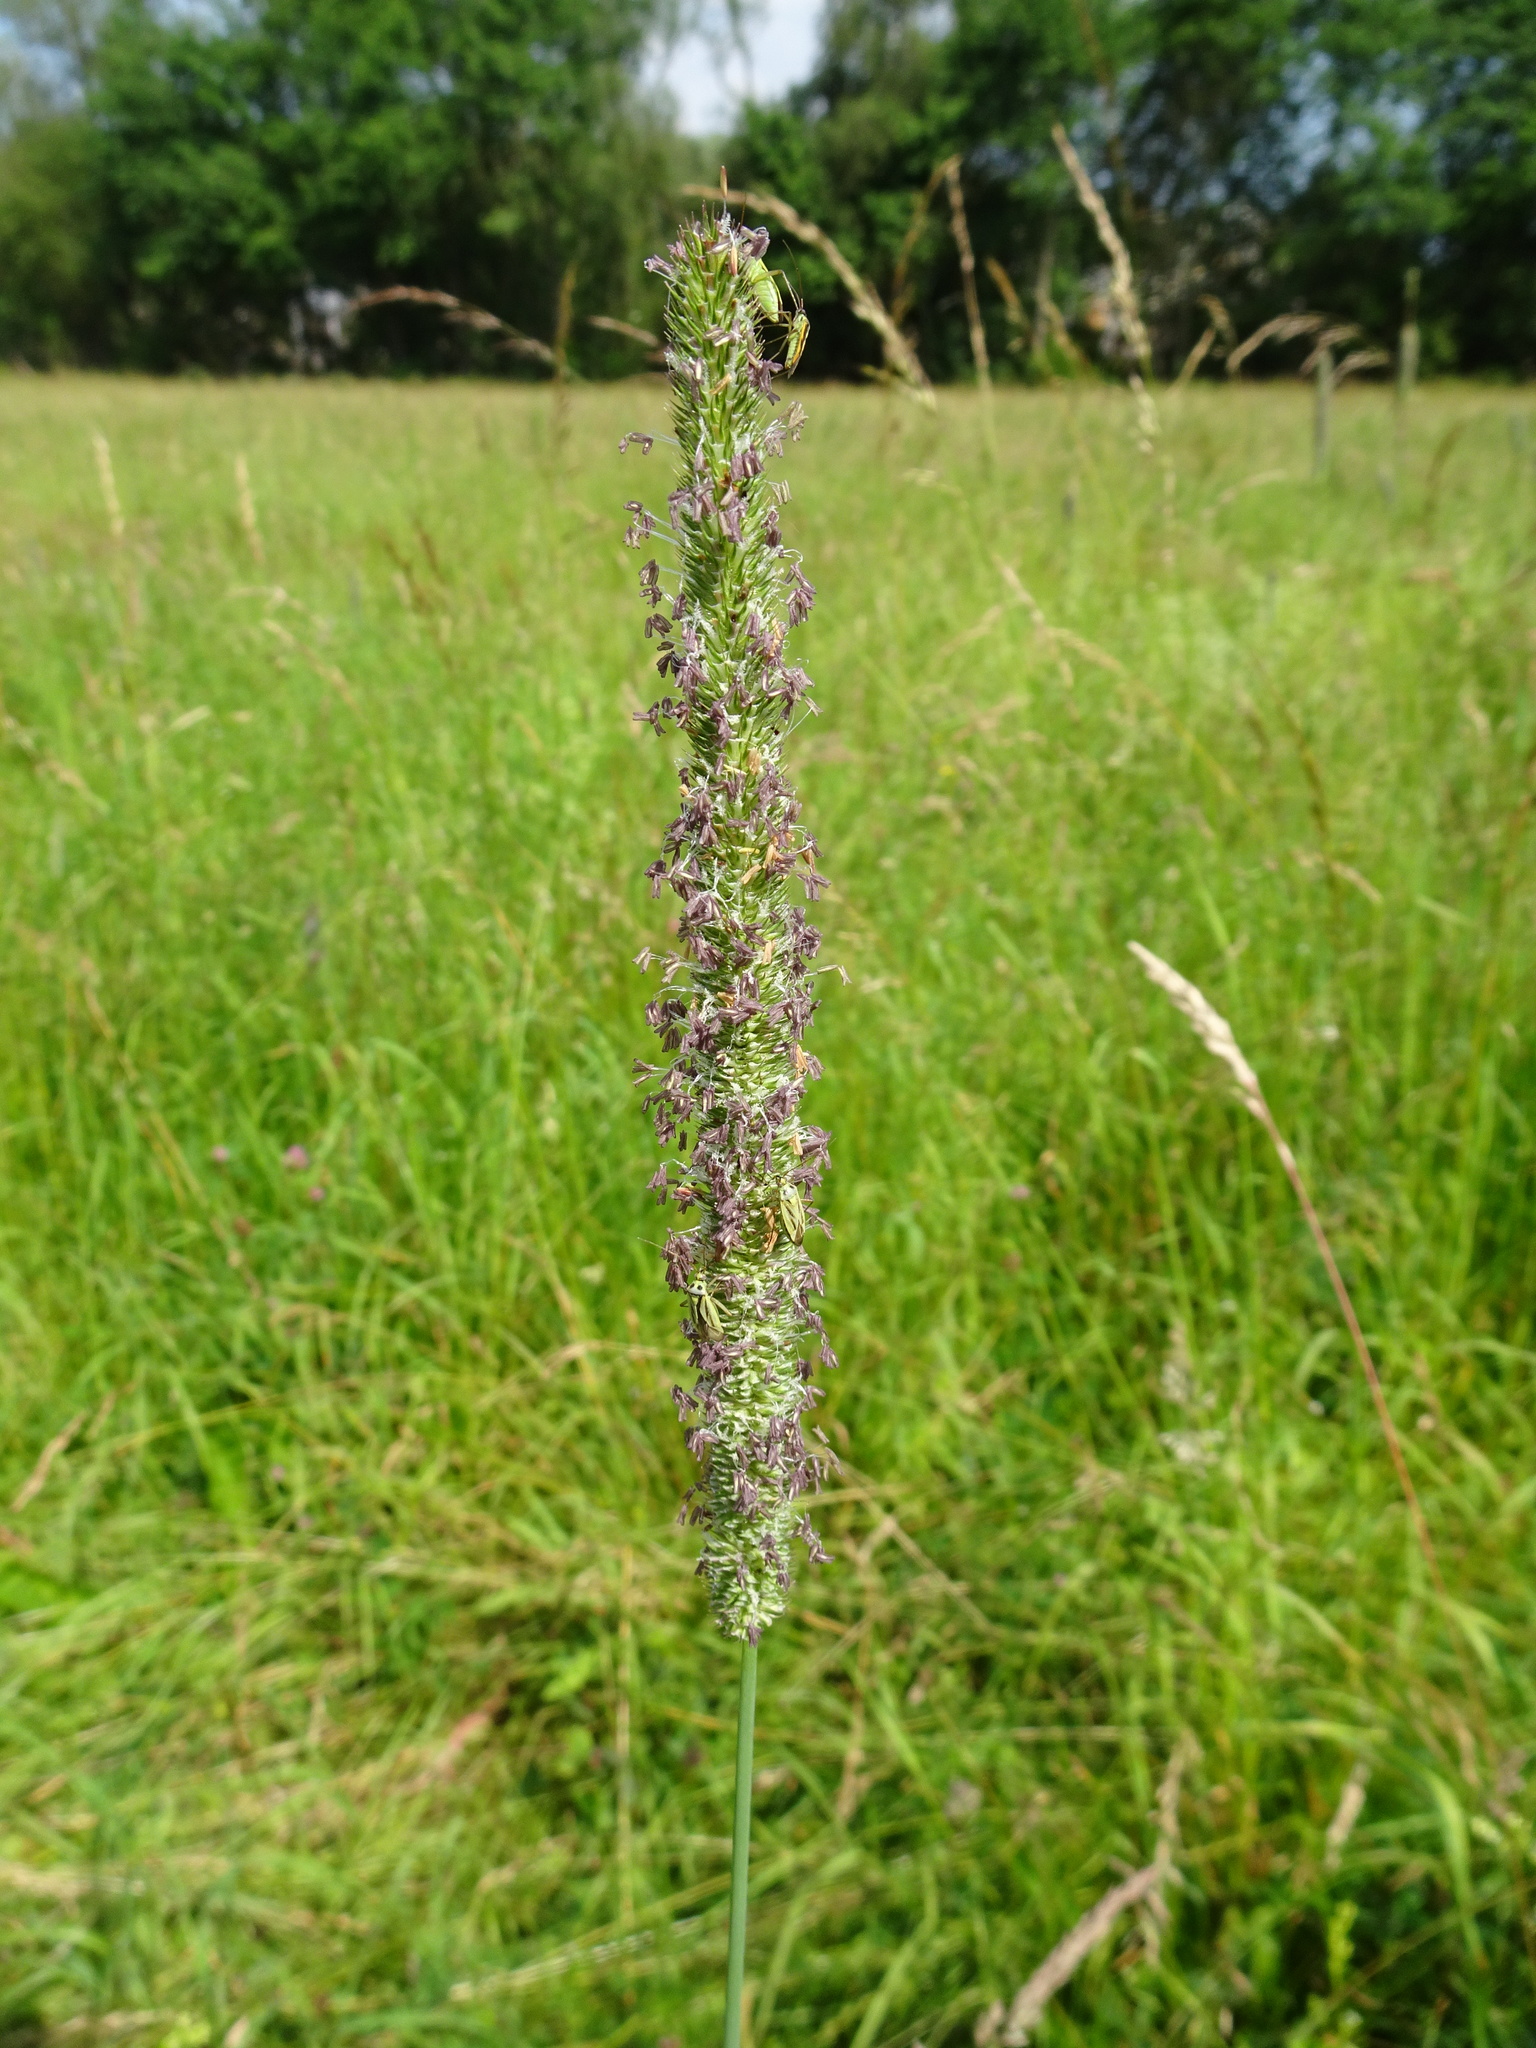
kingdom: Plantae
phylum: Tracheophyta
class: Liliopsida
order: Poales
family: Poaceae
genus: Phleum
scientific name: Phleum pratense
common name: Timothy grass
